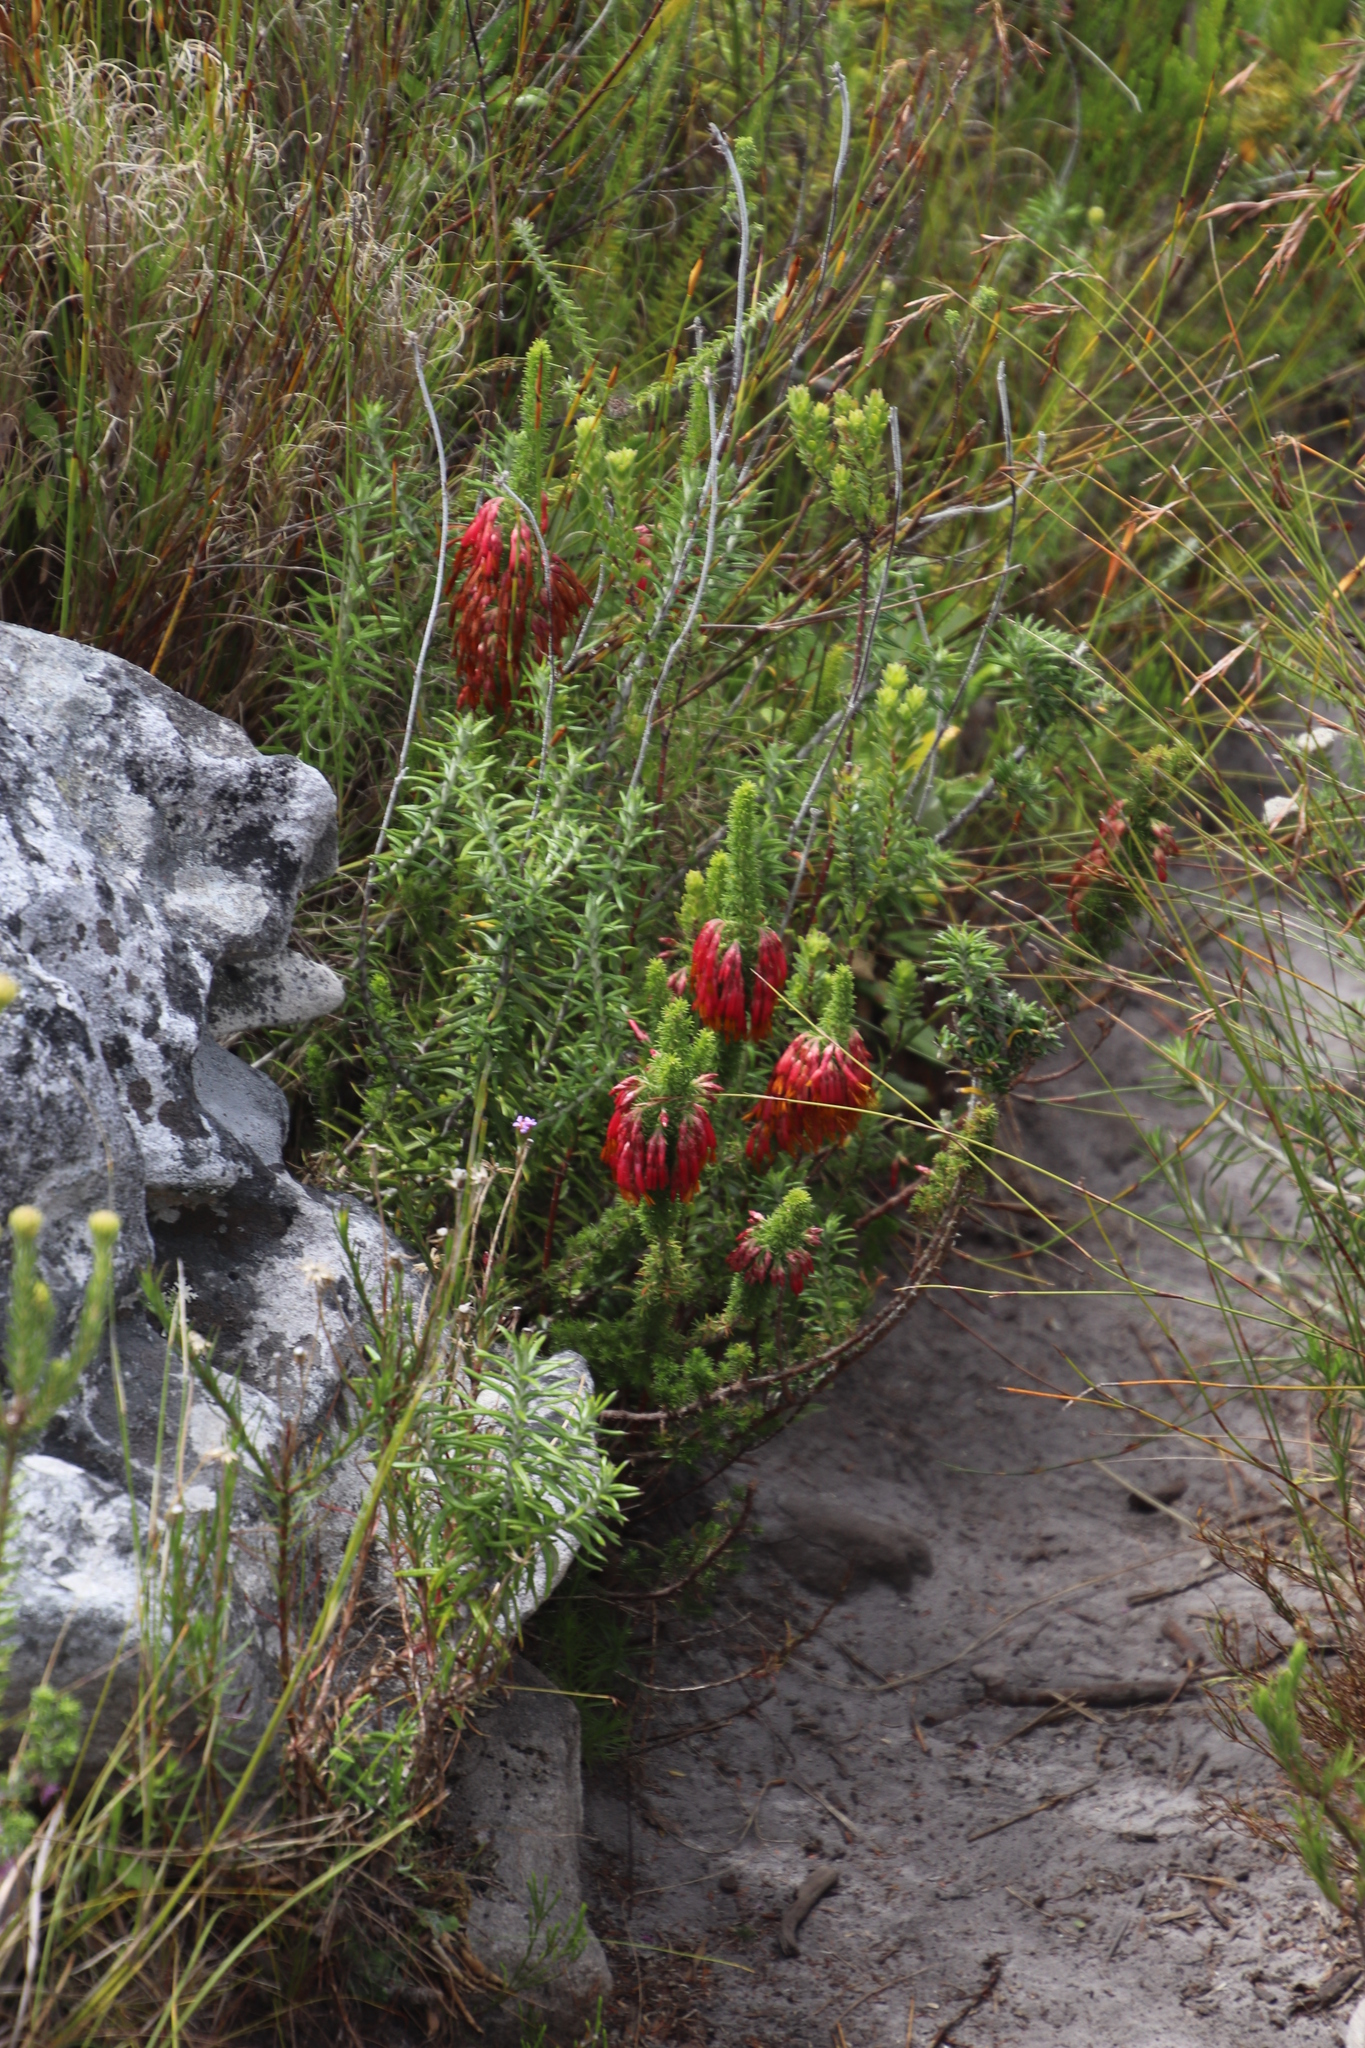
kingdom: Plantae
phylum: Tracheophyta
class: Magnoliopsida
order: Ericales
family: Ericaceae
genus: Erica
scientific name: Erica coccinea
